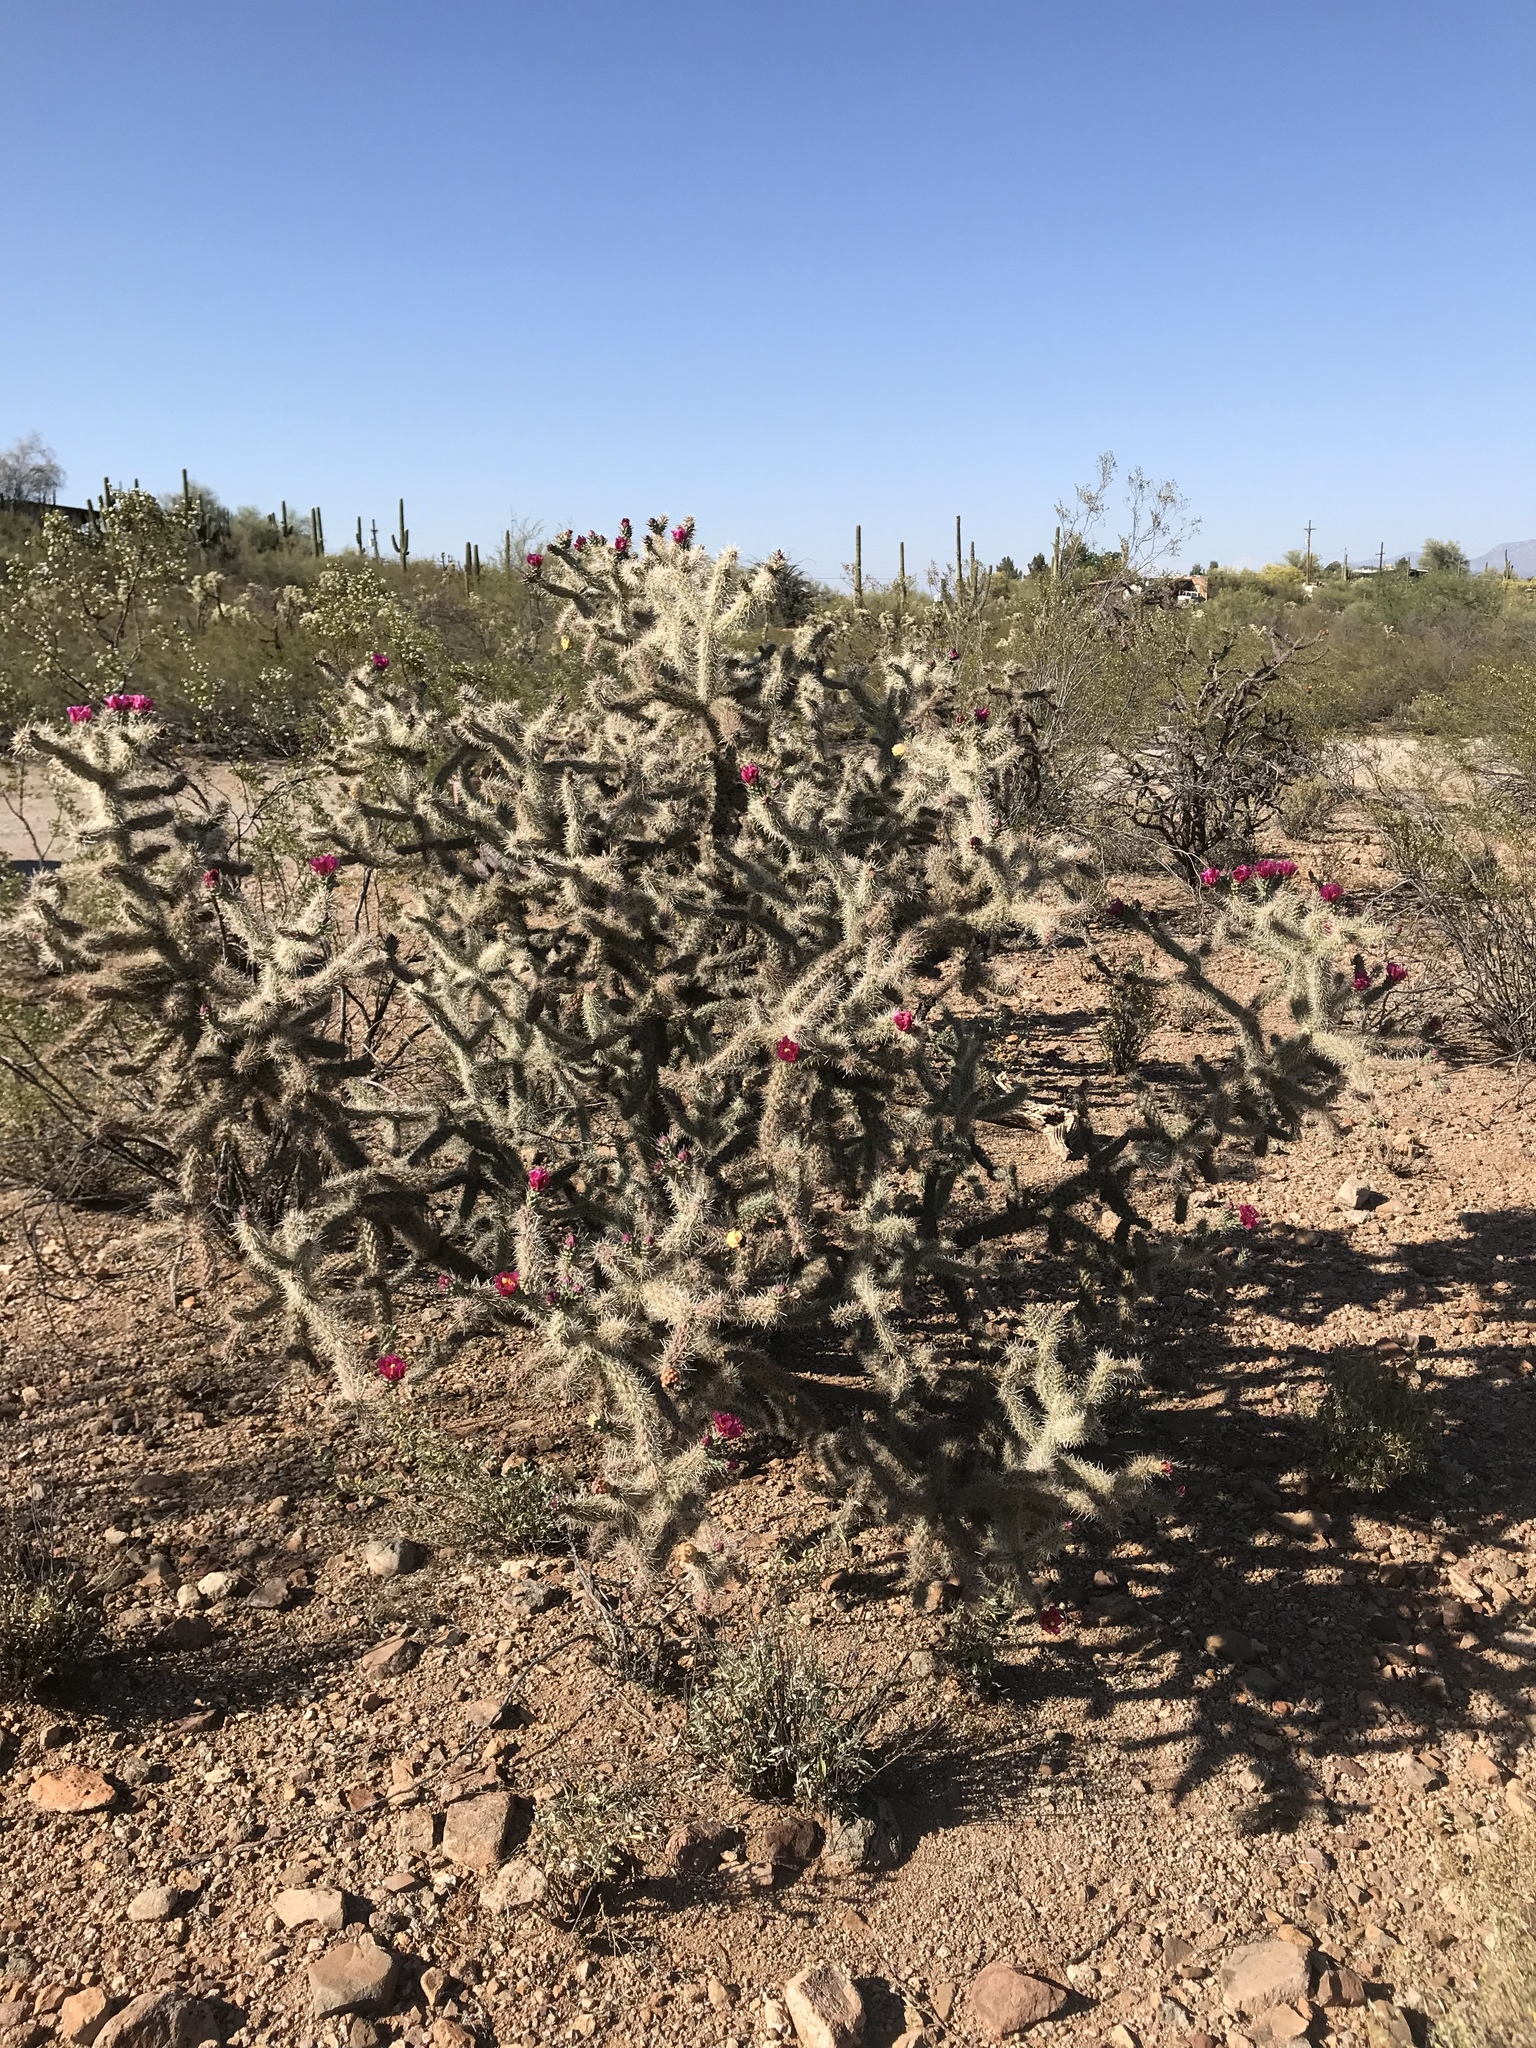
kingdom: Plantae
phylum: Tracheophyta
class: Magnoliopsida
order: Caryophyllales
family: Cactaceae
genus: Cylindropuntia
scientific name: Cylindropuntia imbricata
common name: Candelabrum cactus
